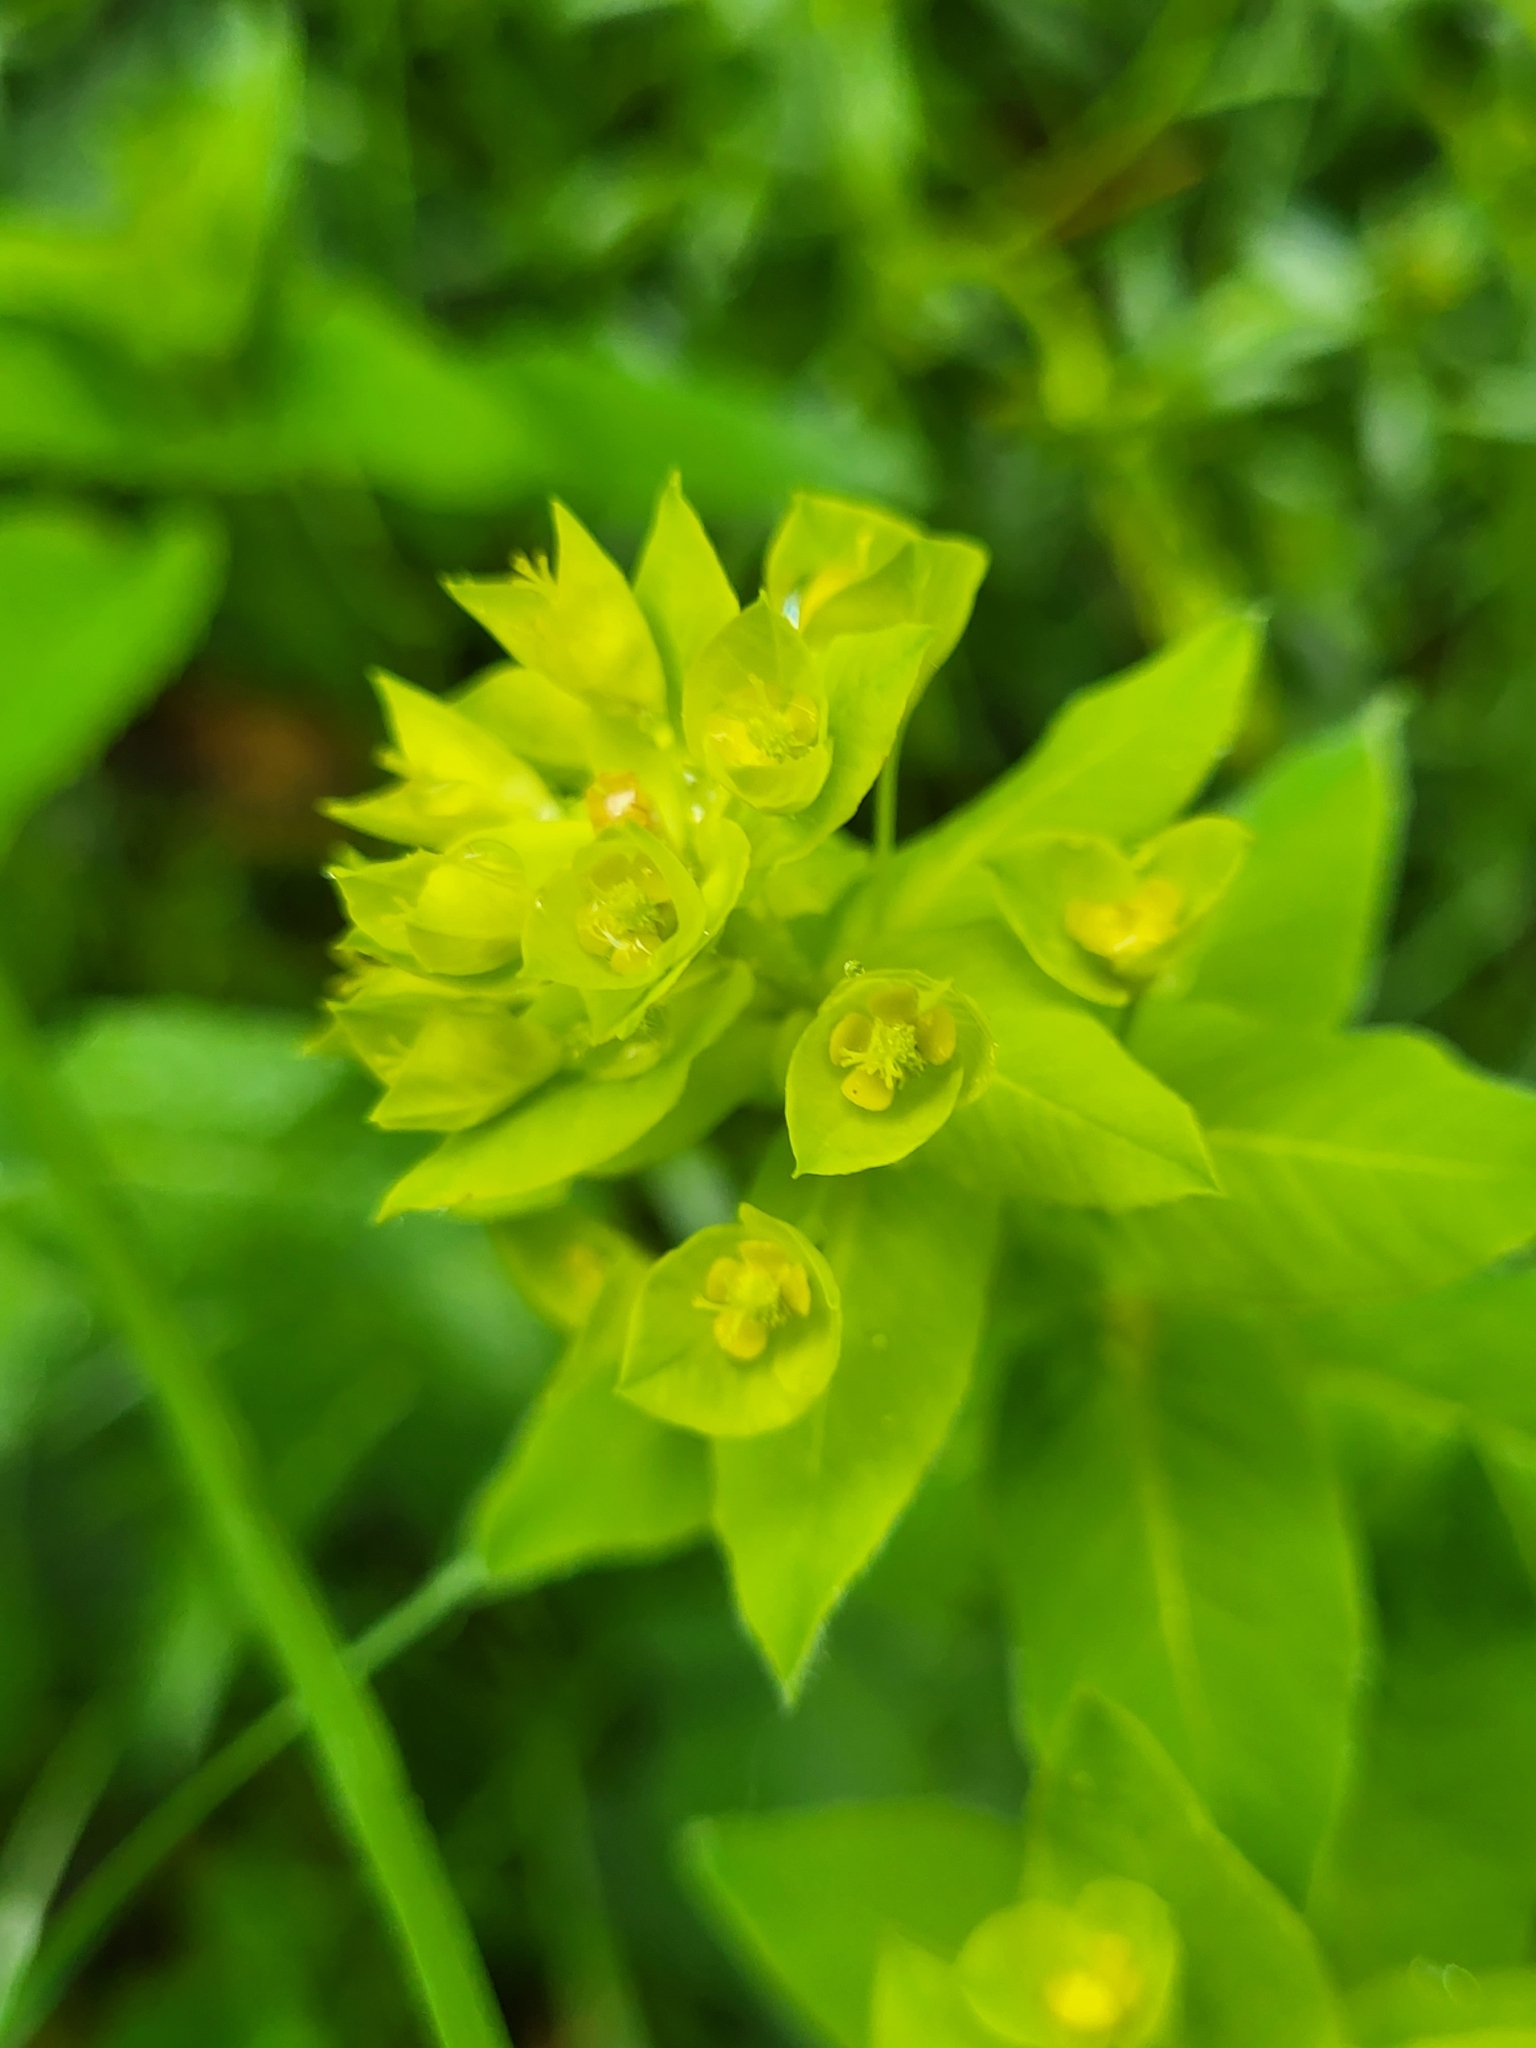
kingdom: Plantae
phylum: Tracheophyta
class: Magnoliopsida
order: Malpighiales
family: Euphorbiaceae
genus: Euphorbia
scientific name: Euphorbia squamosa
